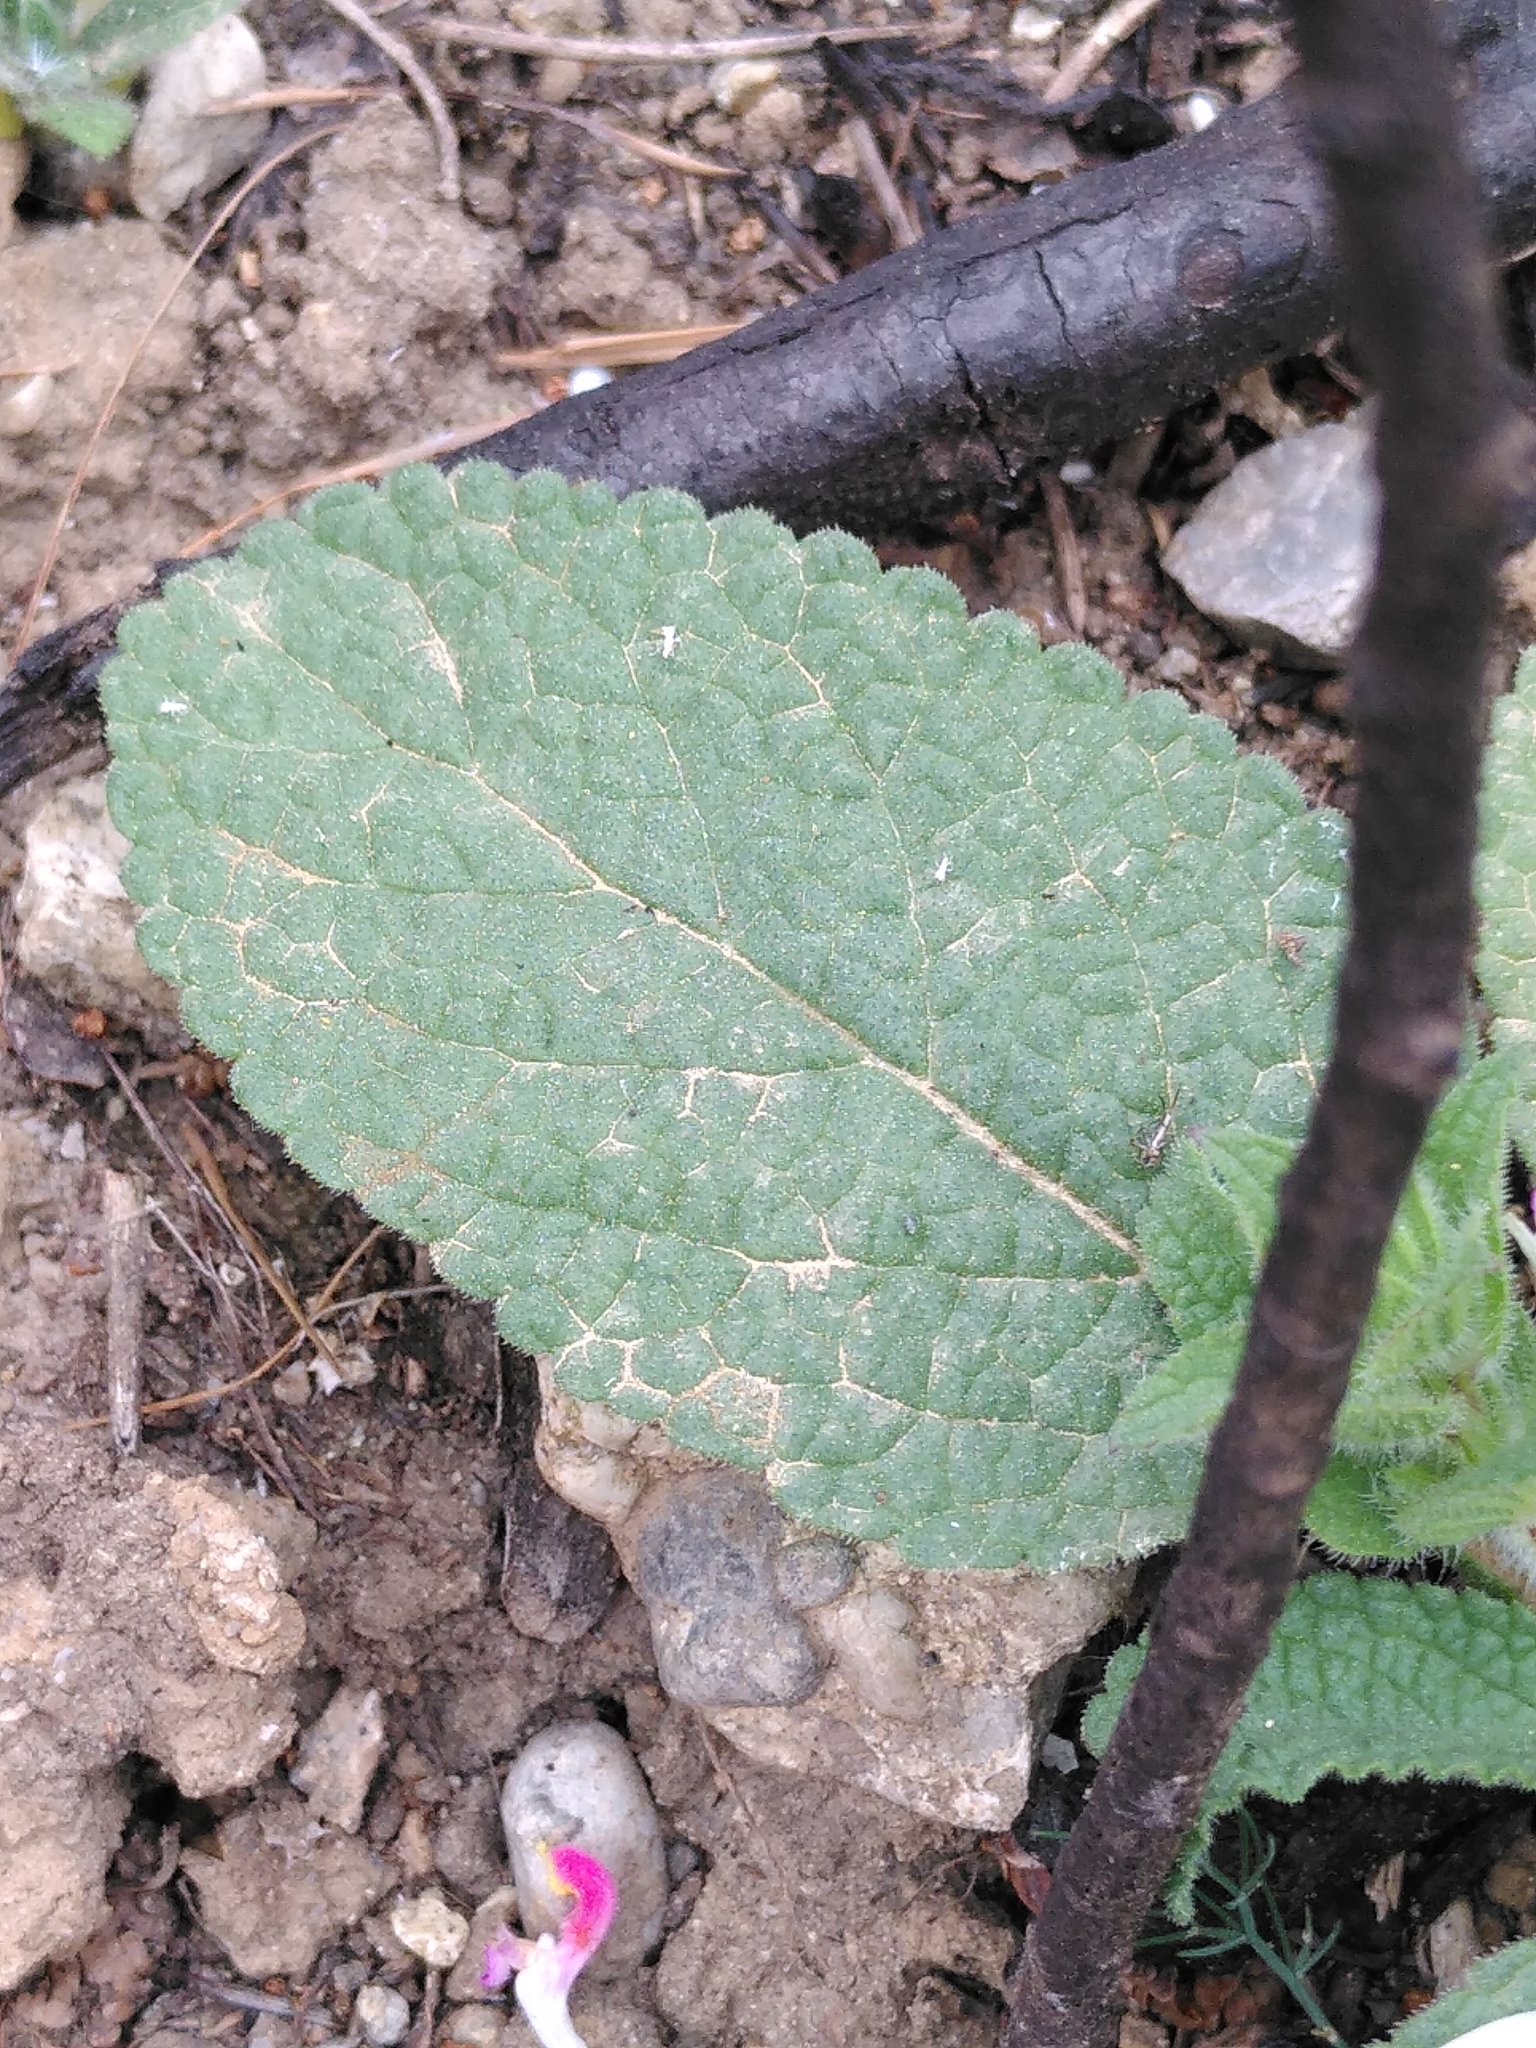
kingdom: Plantae
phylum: Tracheophyta
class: Magnoliopsida
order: Lamiales
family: Lamiaceae
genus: Salvia
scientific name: Salvia viridis
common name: Annual clary
